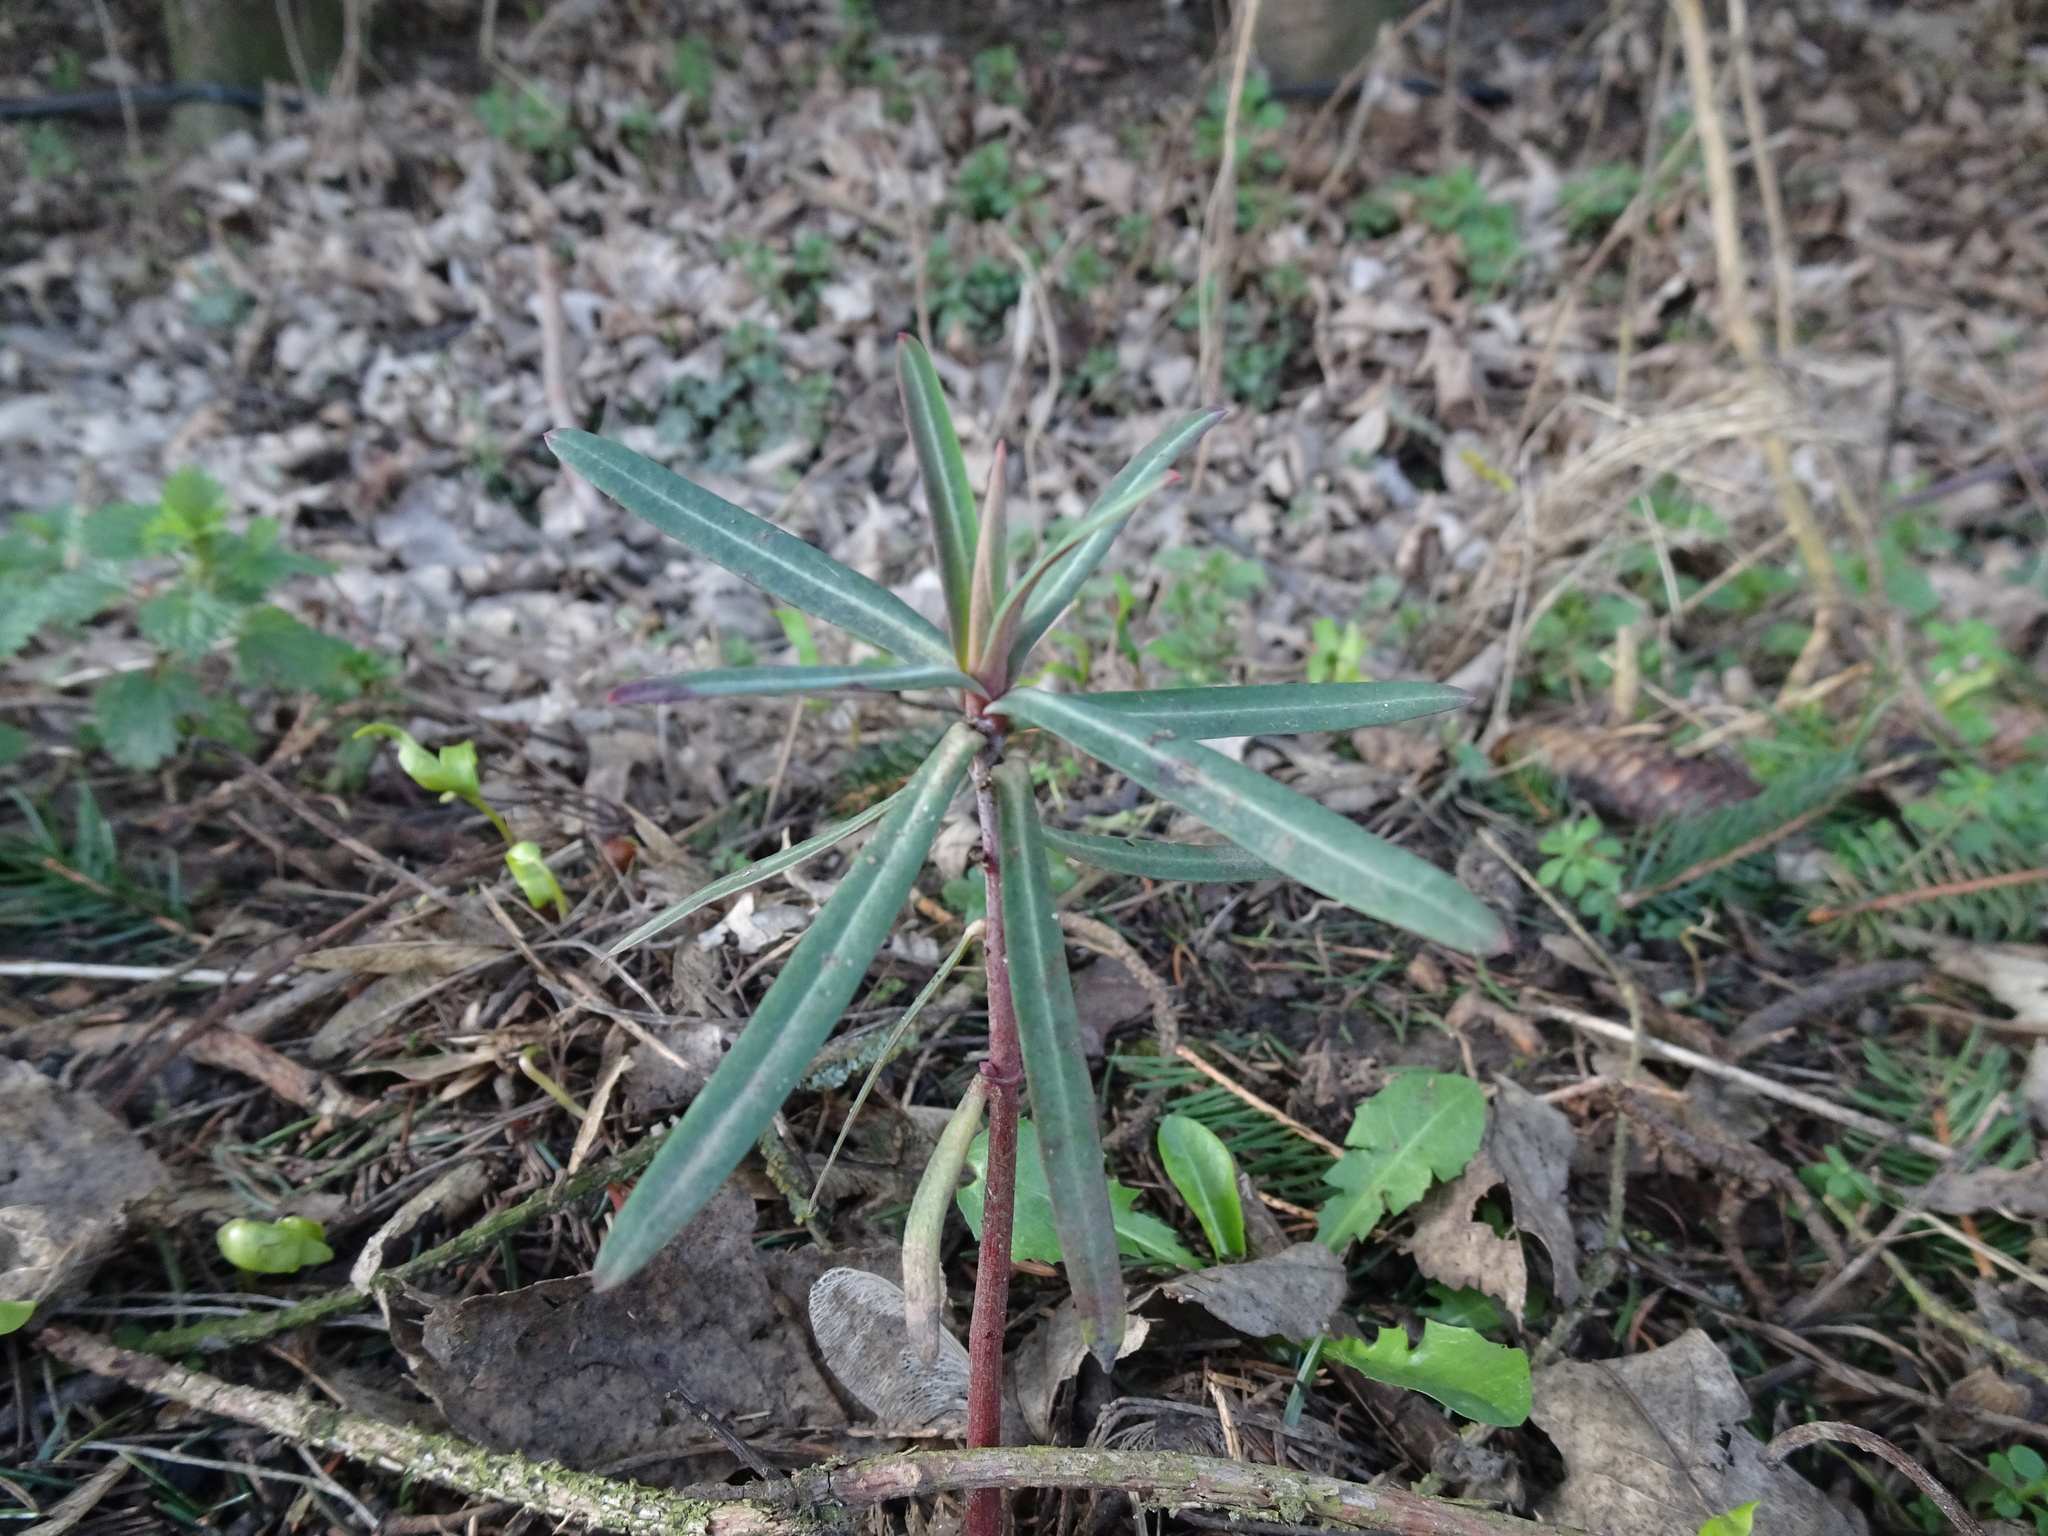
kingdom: Plantae
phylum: Tracheophyta
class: Magnoliopsida
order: Malpighiales
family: Euphorbiaceae
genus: Euphorbia
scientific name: Euphorbia lathyris
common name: Caper spurge
